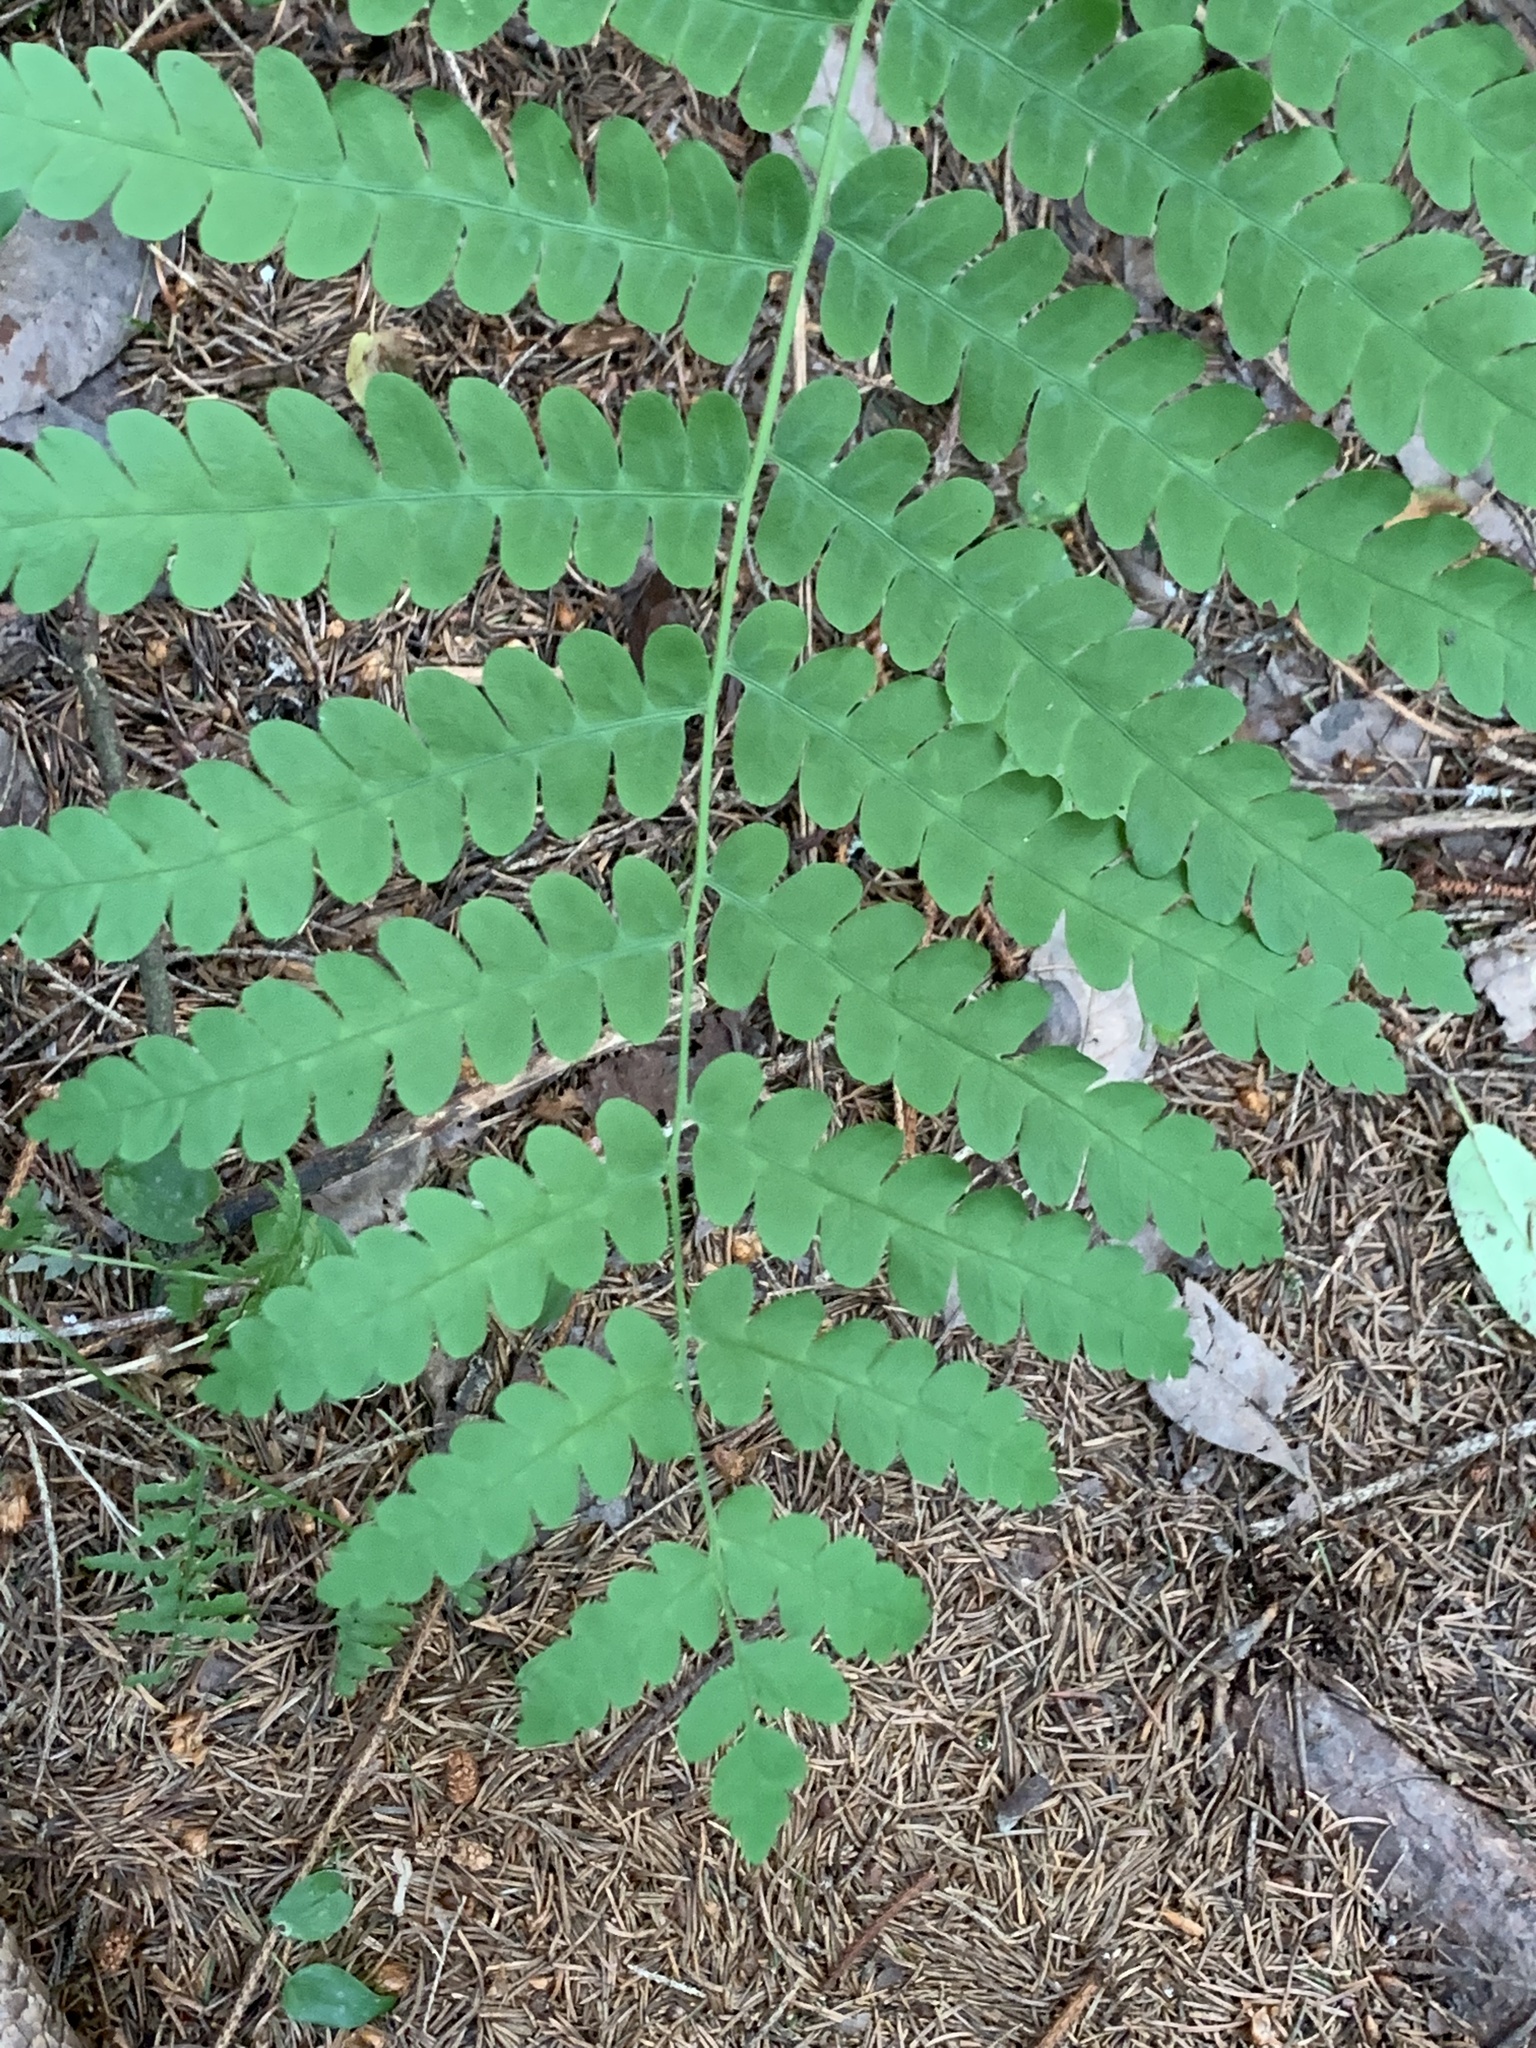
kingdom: Plantae
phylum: Tracheophyta
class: Polypodiopsida
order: Osmundales
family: Osmundaceae
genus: Claytosmunda
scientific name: Claytosmunda claytoniana
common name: Clayton's fern
